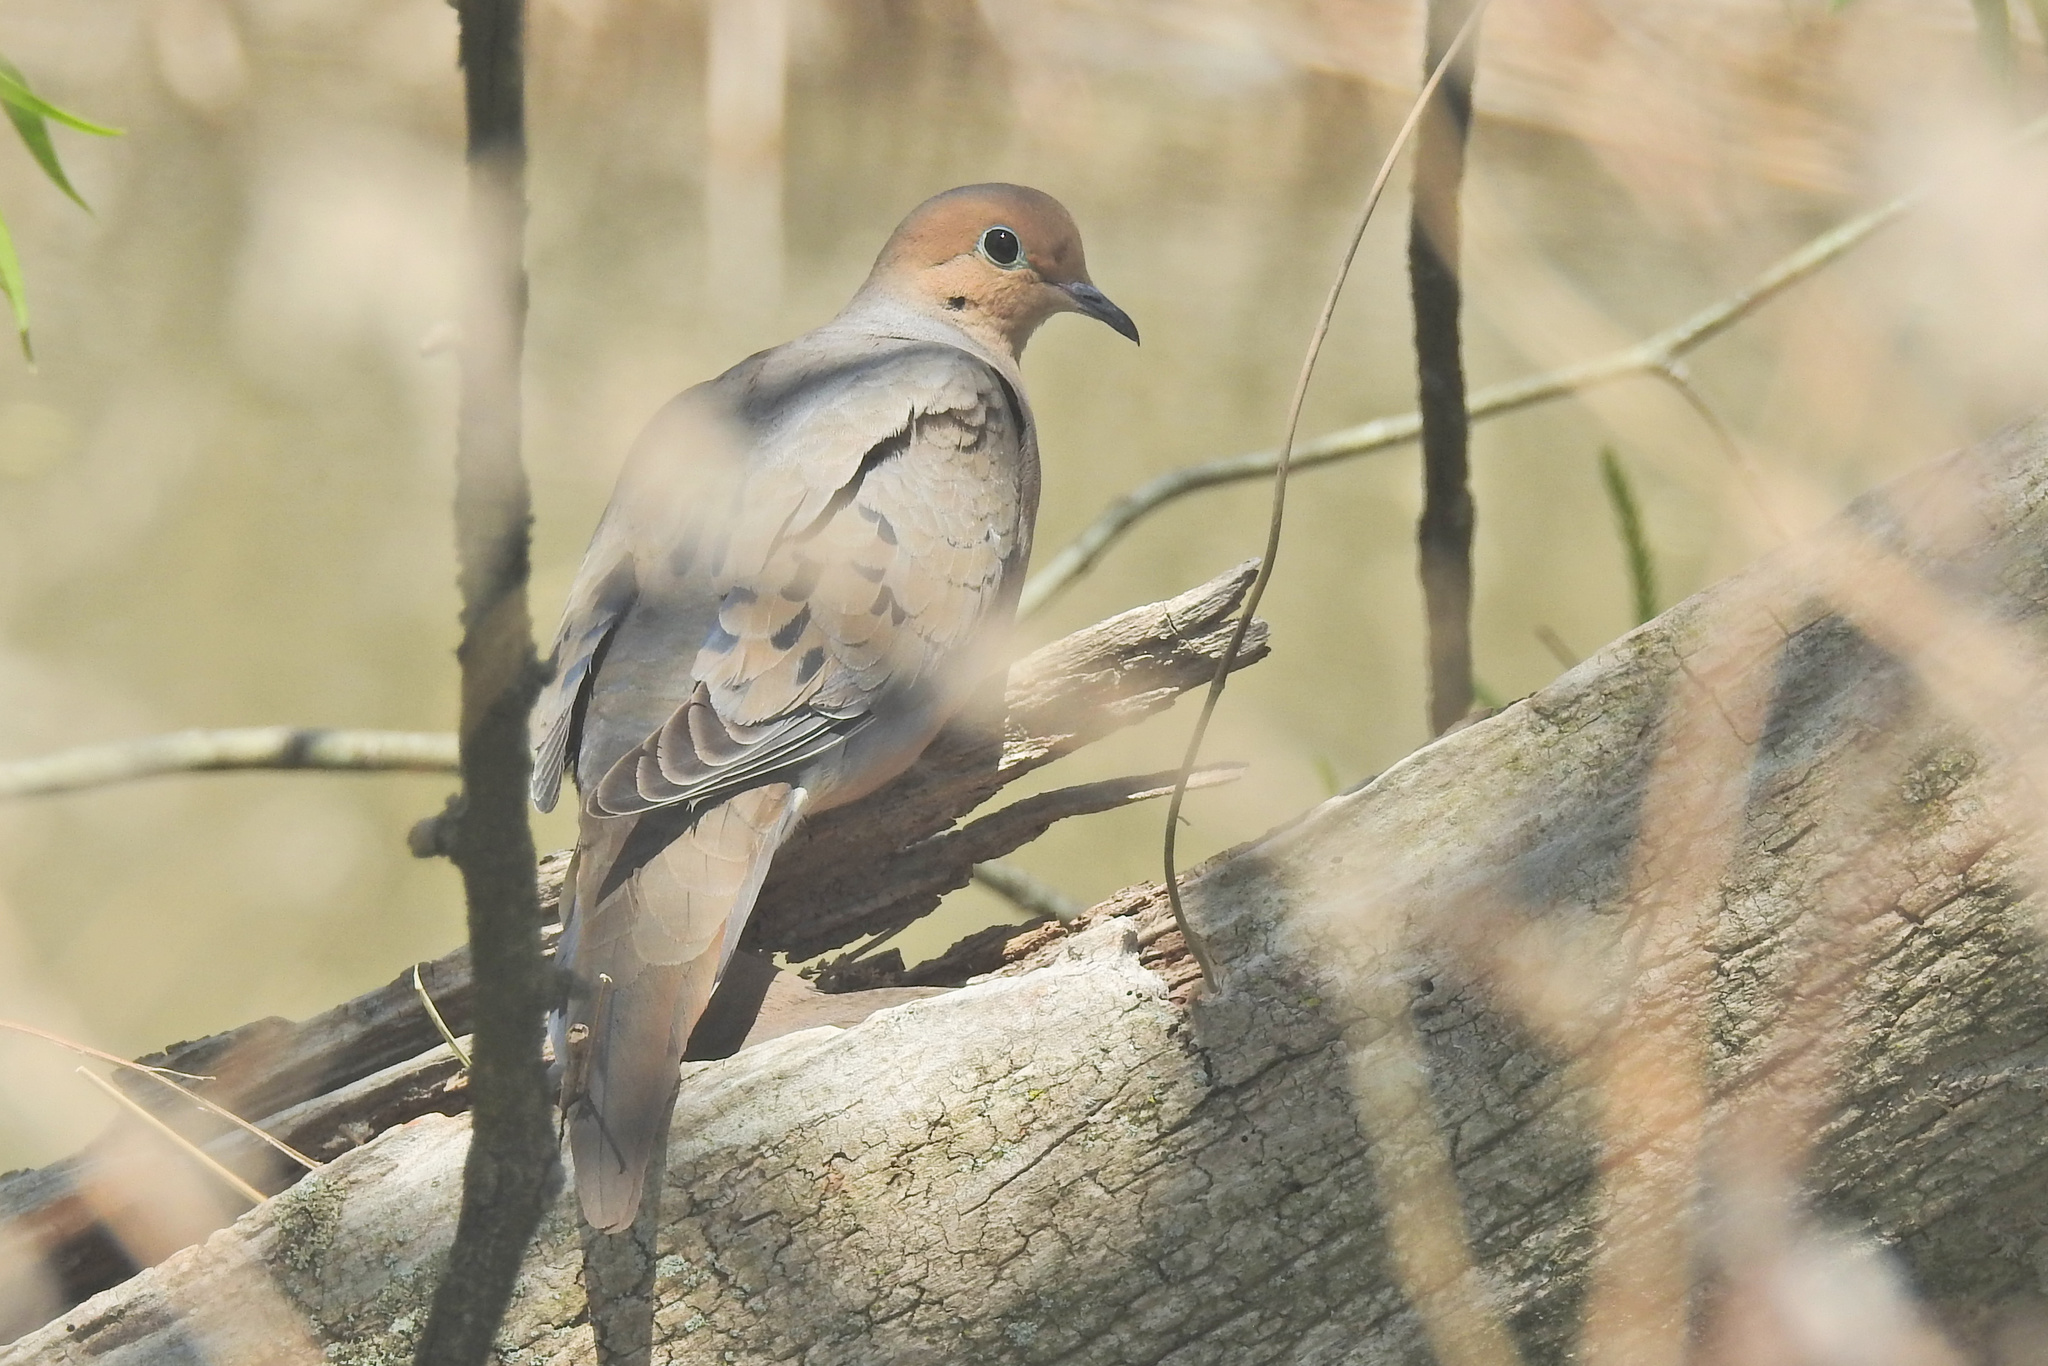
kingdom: Animalia
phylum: Chordata
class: Aves
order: Columbiformes
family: Columbidae
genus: Zenaida
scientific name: Zenaida macroura
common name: Mourning dove
